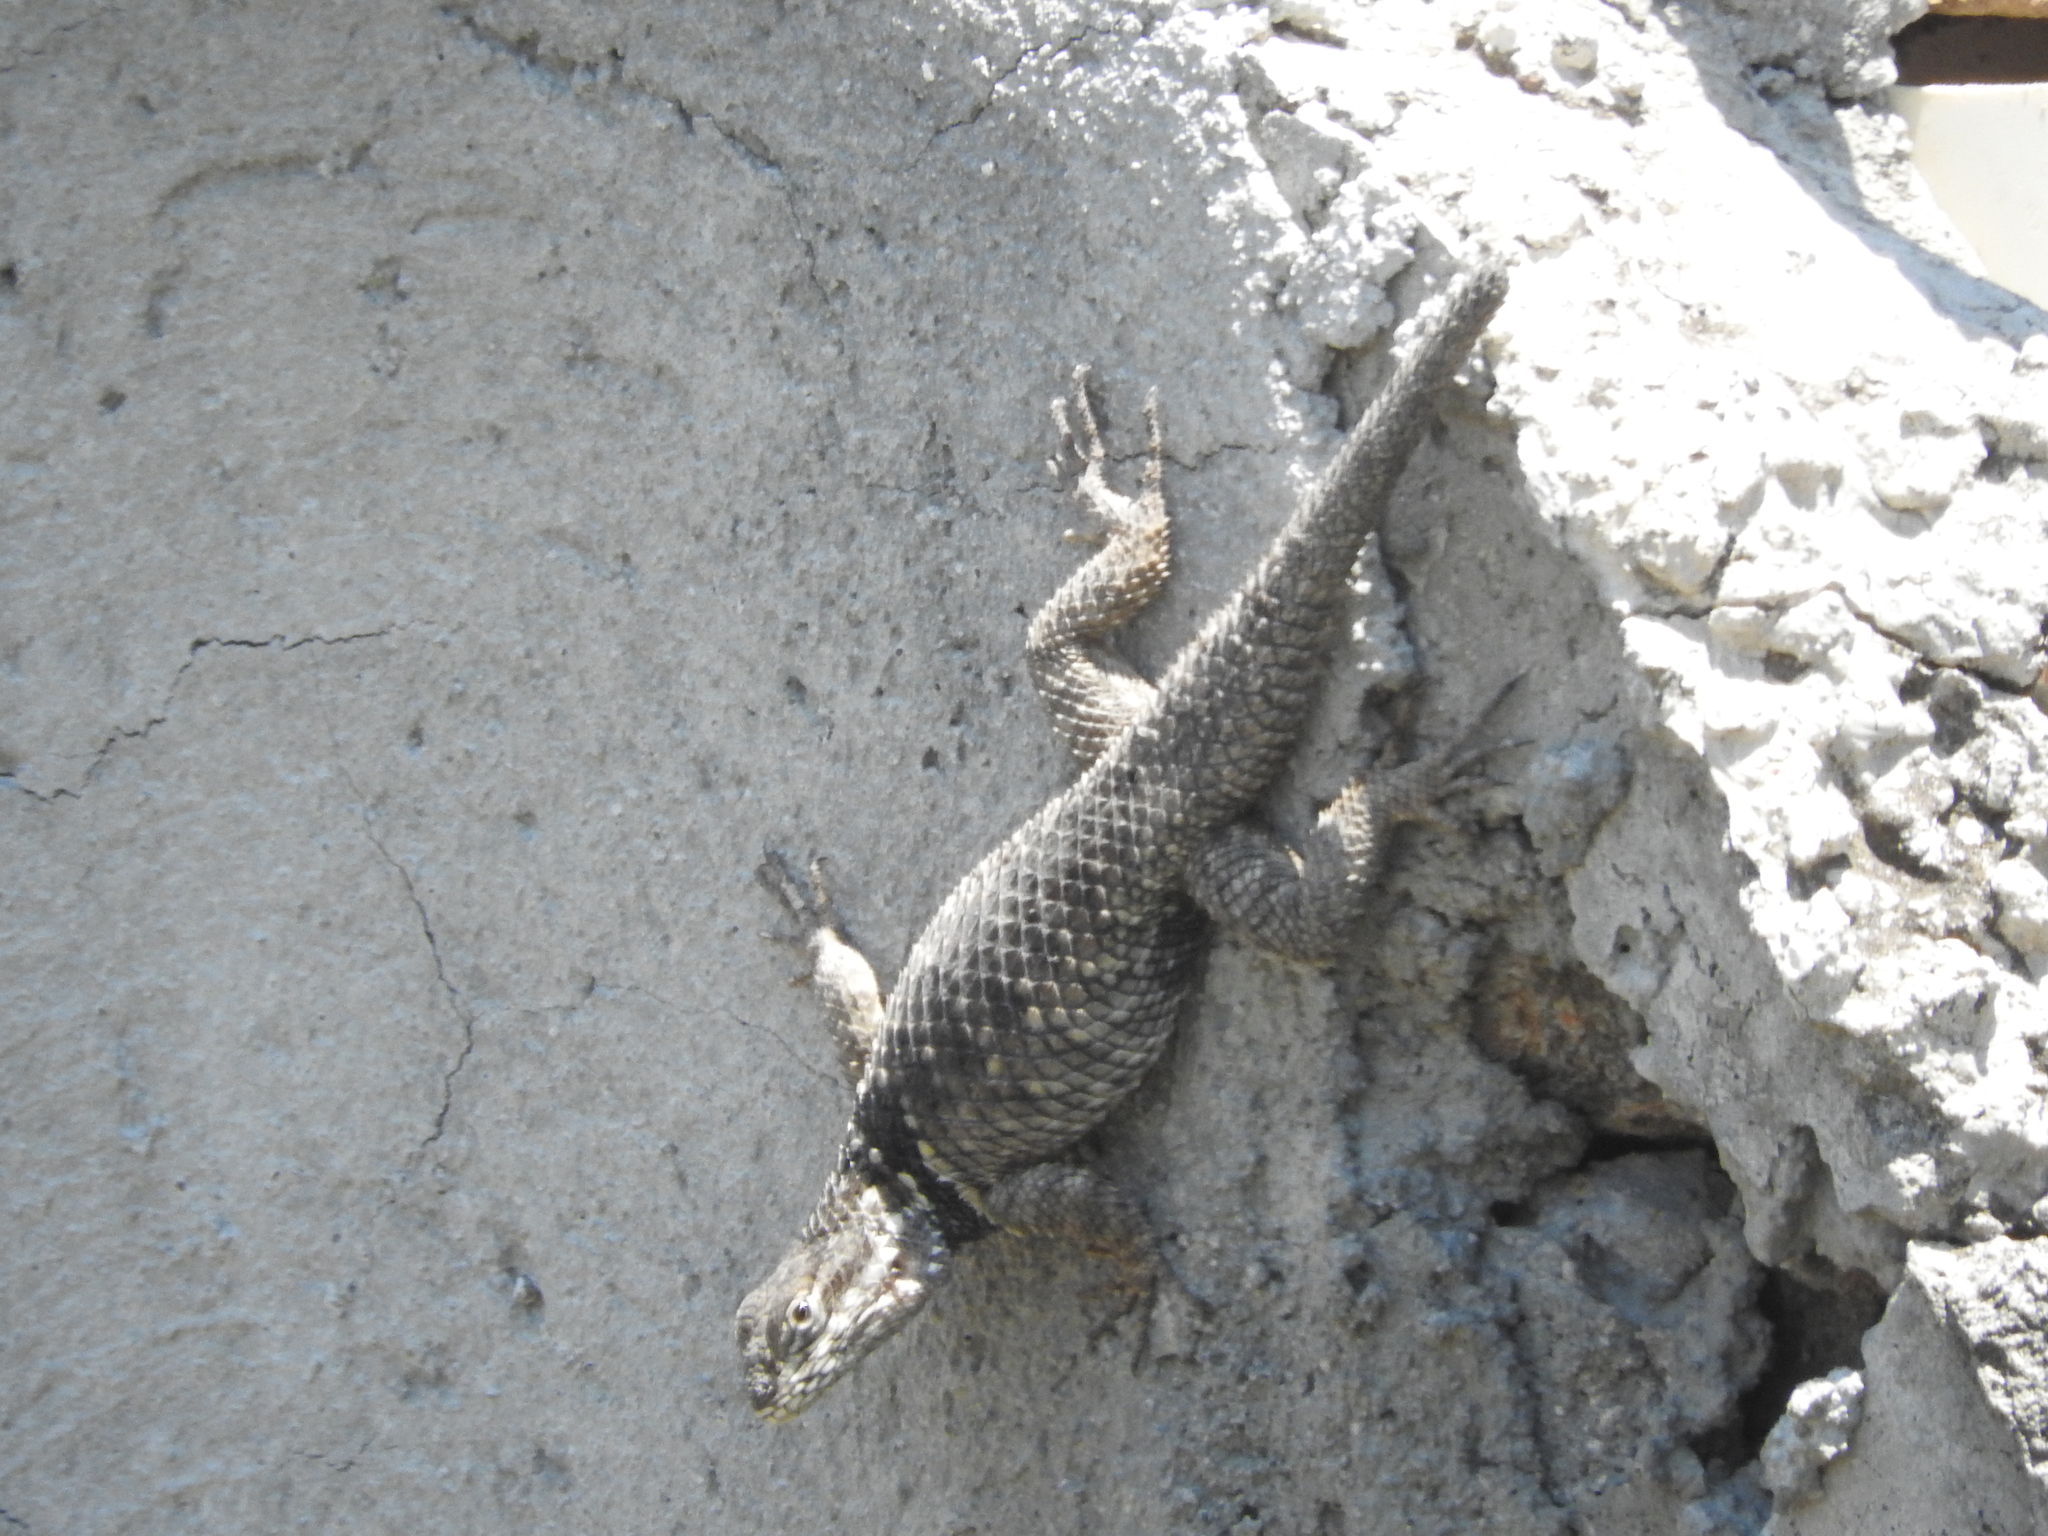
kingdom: Animalia
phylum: Chordata
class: Squamata
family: Phrynosomatidae
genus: Sceloporus
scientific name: Sceloporus torquatus
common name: Central plateau torquate lizard [melanogaster]
